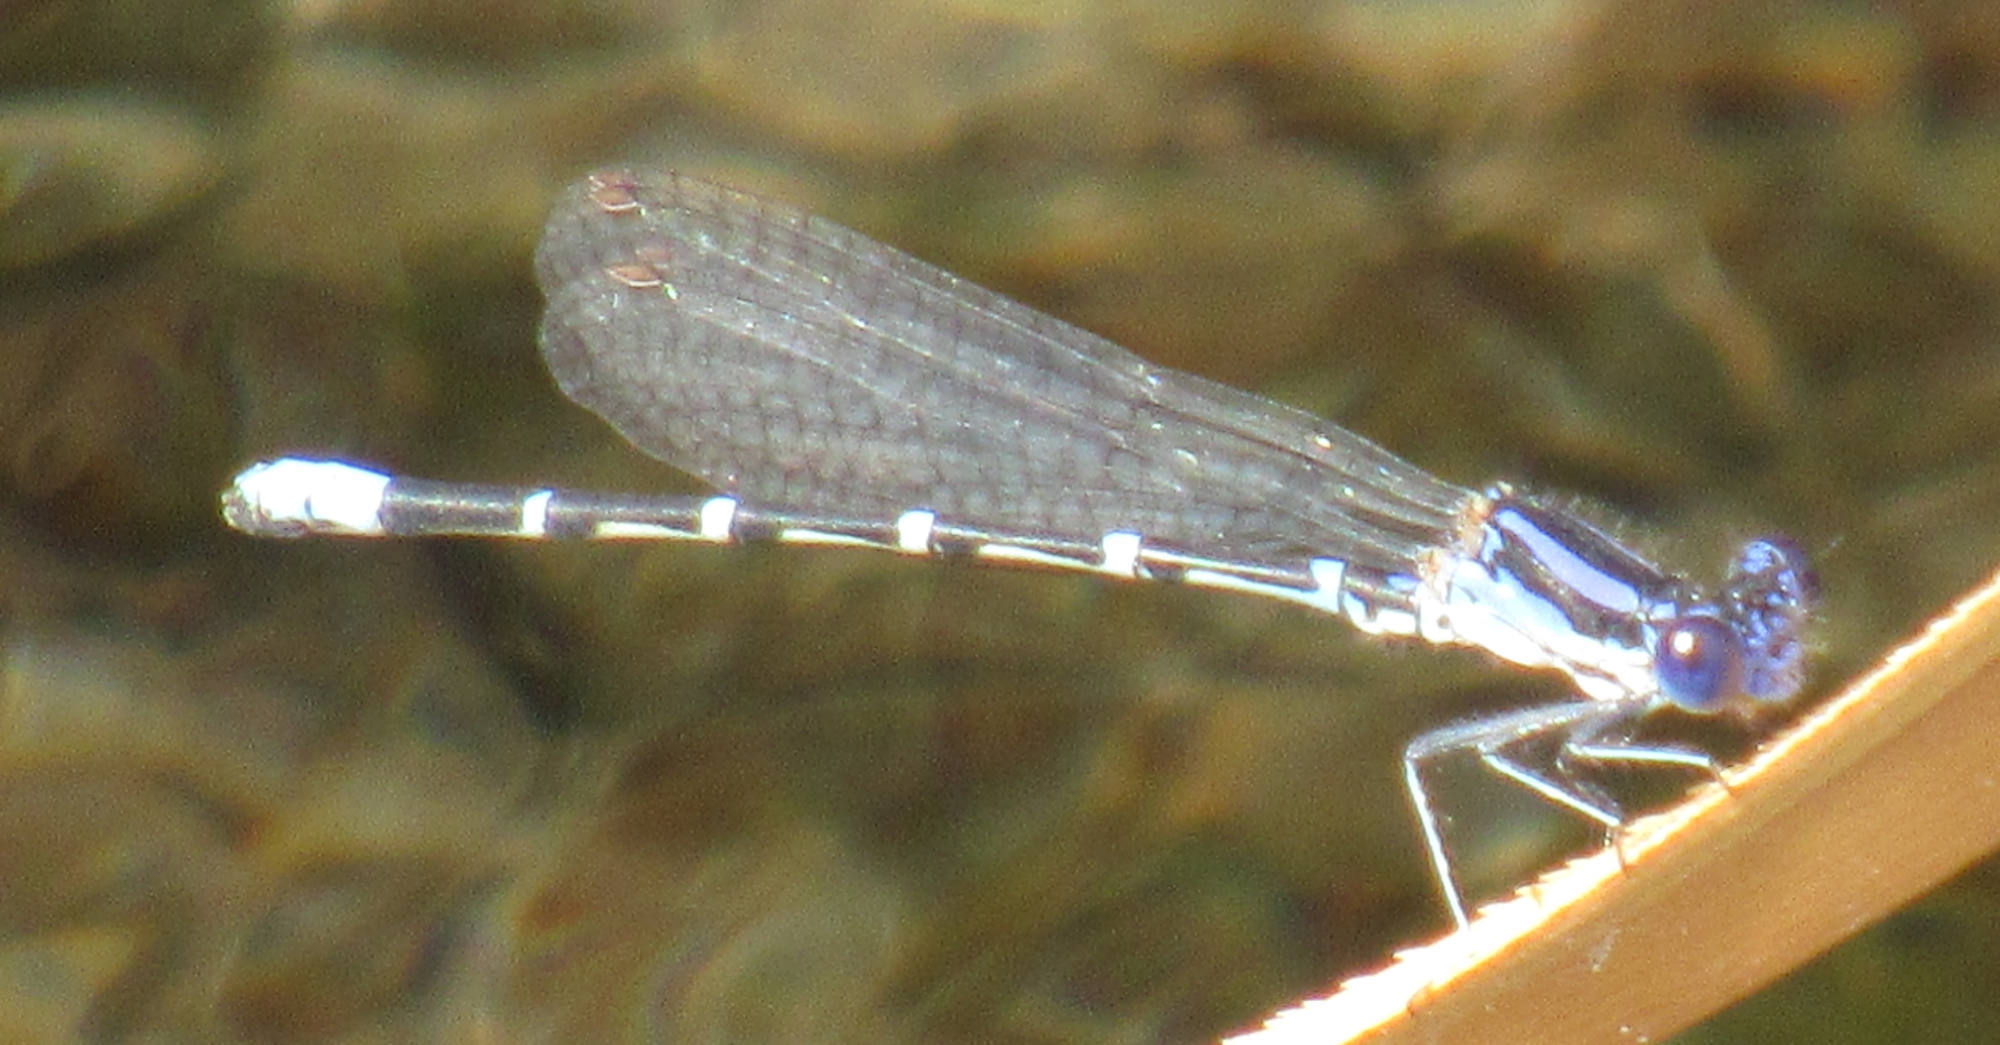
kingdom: Animalia
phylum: Arthropoda
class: Insecta
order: Odonata
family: Coenagrionidae
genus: Argia
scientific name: Argia sedula
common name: Blue-ringed dancer
